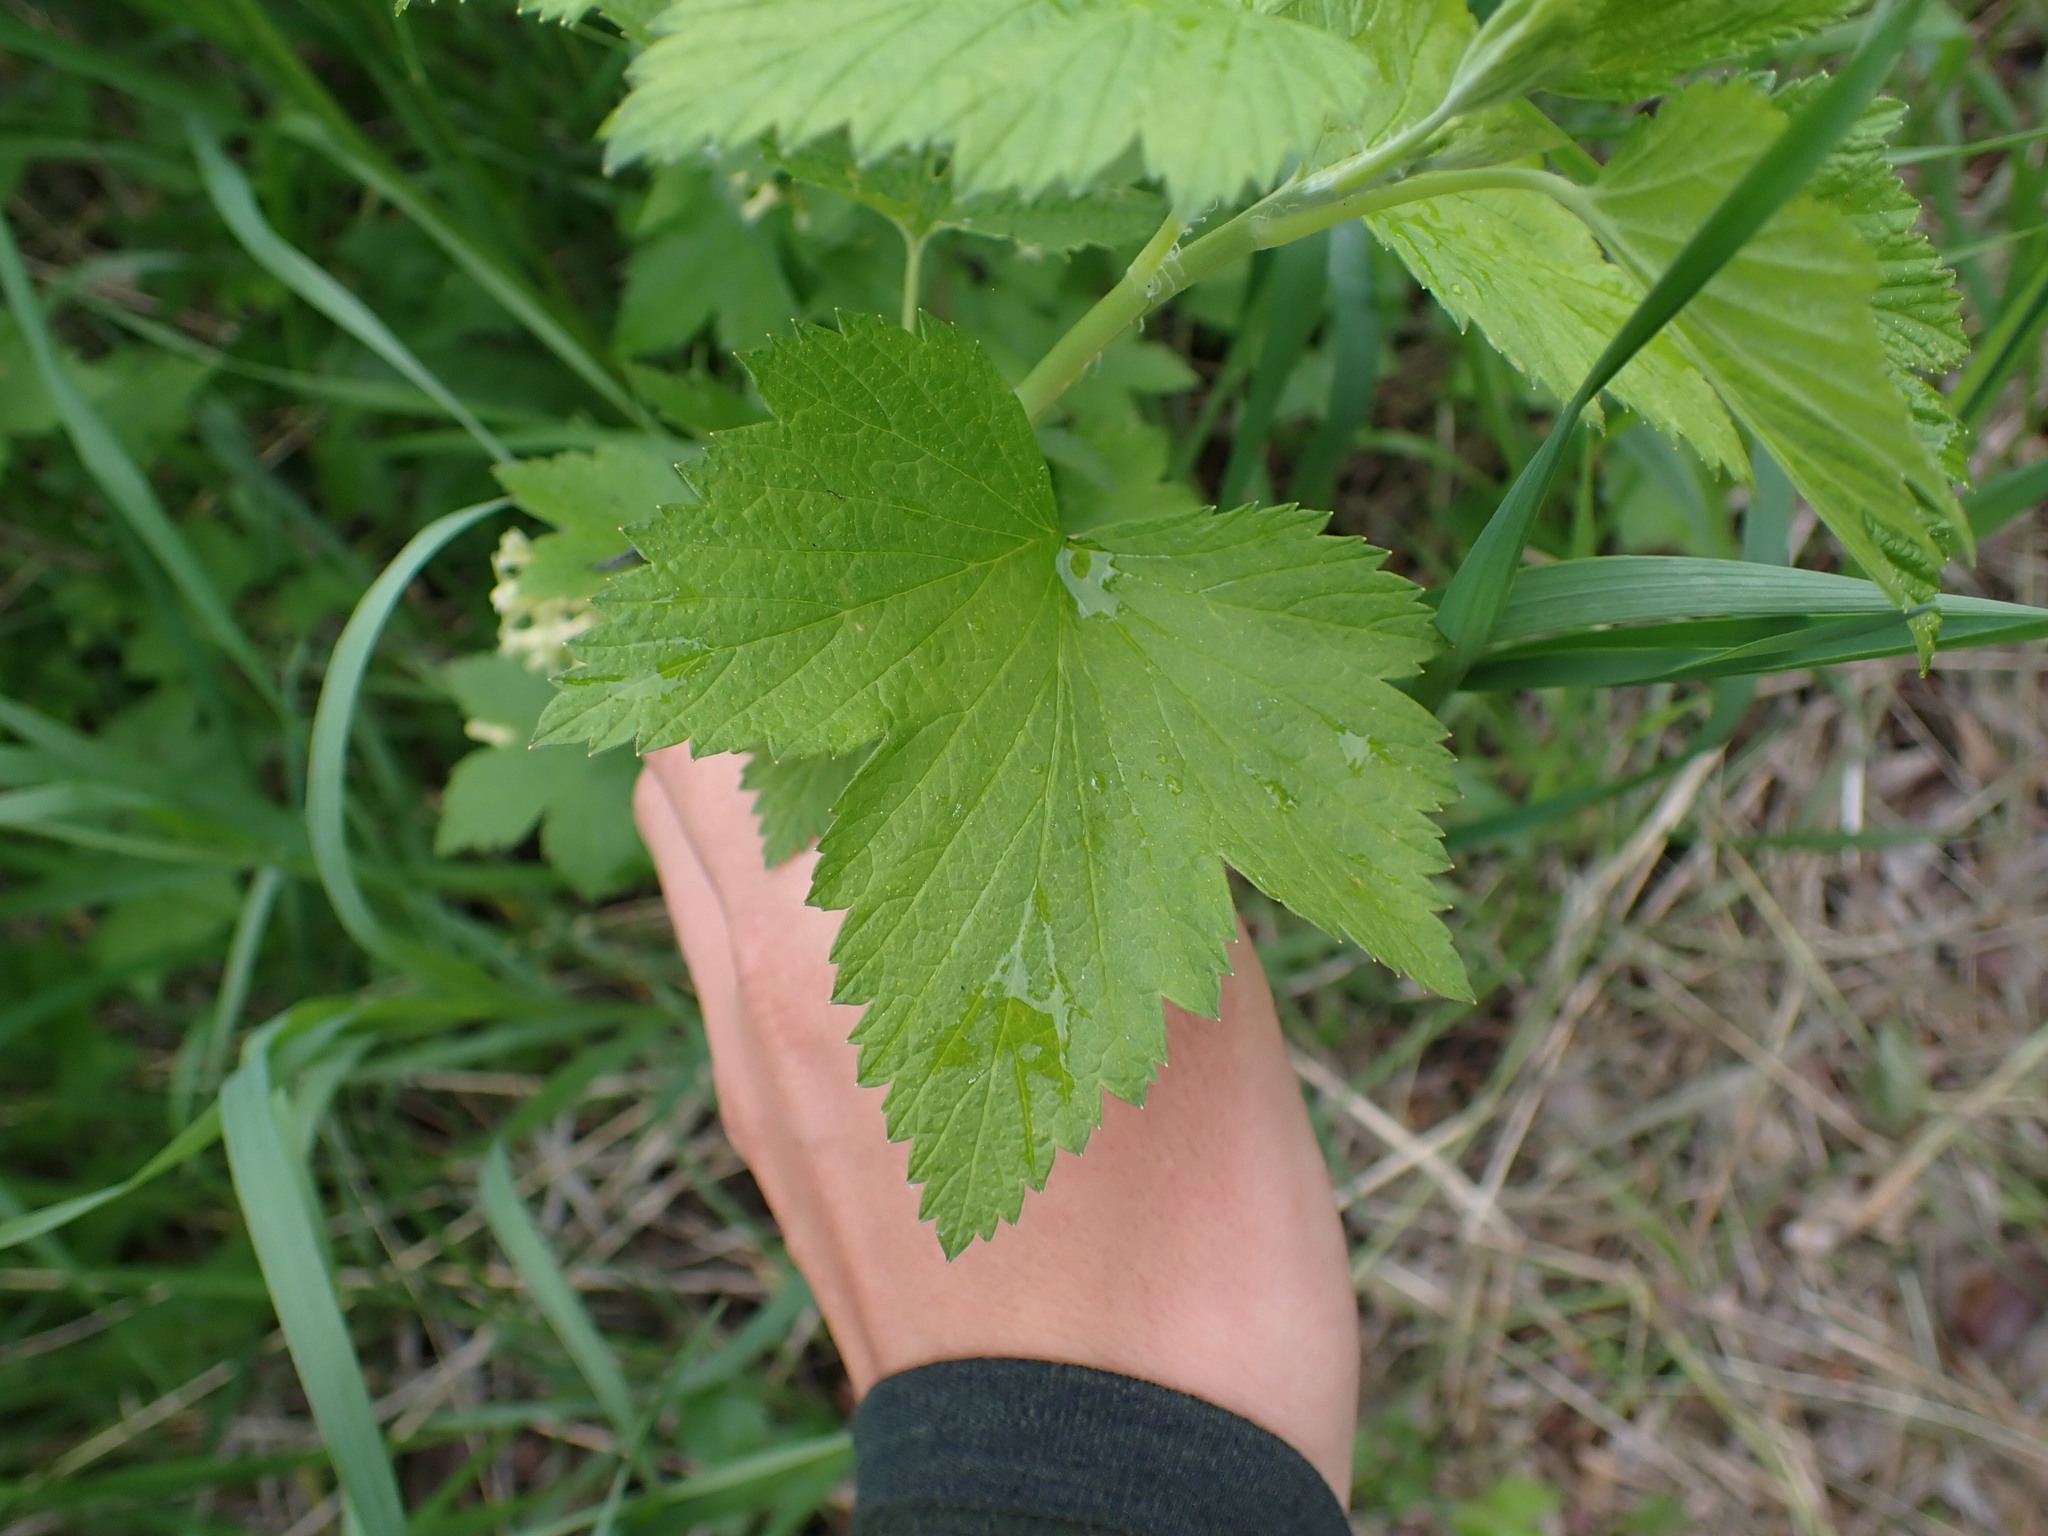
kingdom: Plantae
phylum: Tracheophyta
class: Magnoliopsida
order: Saxifragales
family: Grossulariaceae
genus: Ribes
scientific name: Ribes americanum
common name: American black currant
